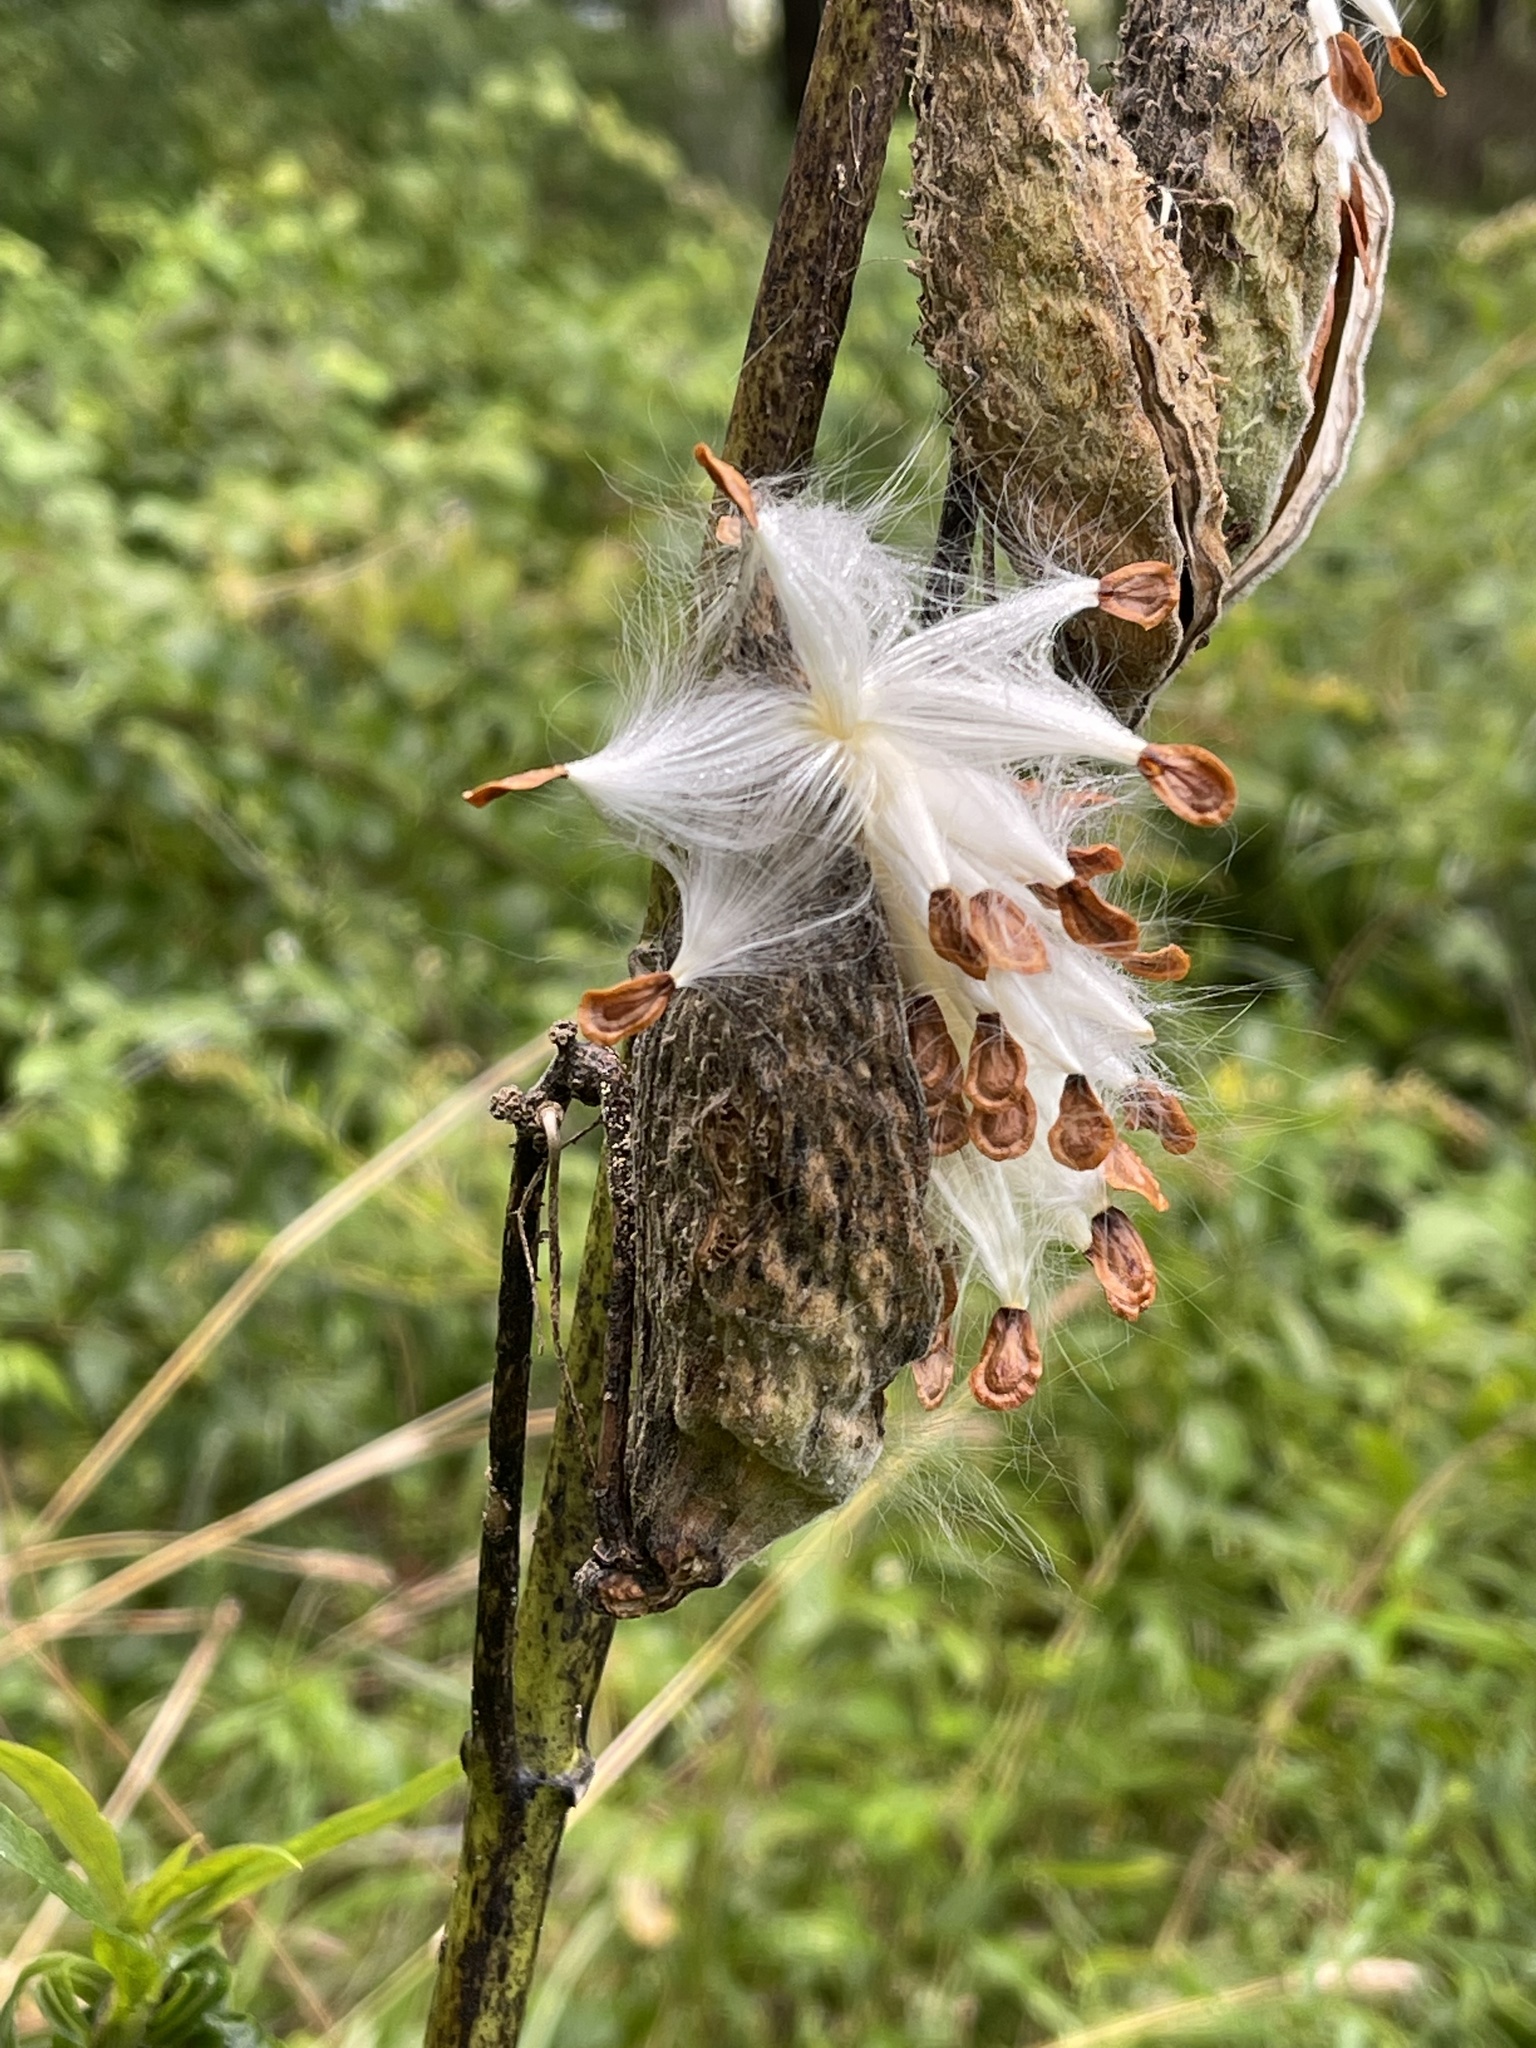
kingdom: Plantae
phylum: Tracheophyta
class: Magnoliopsida
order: Gentianales
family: Apocynaceae
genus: Asclepias
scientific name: Asclepias syriaca
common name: Common milkweed
